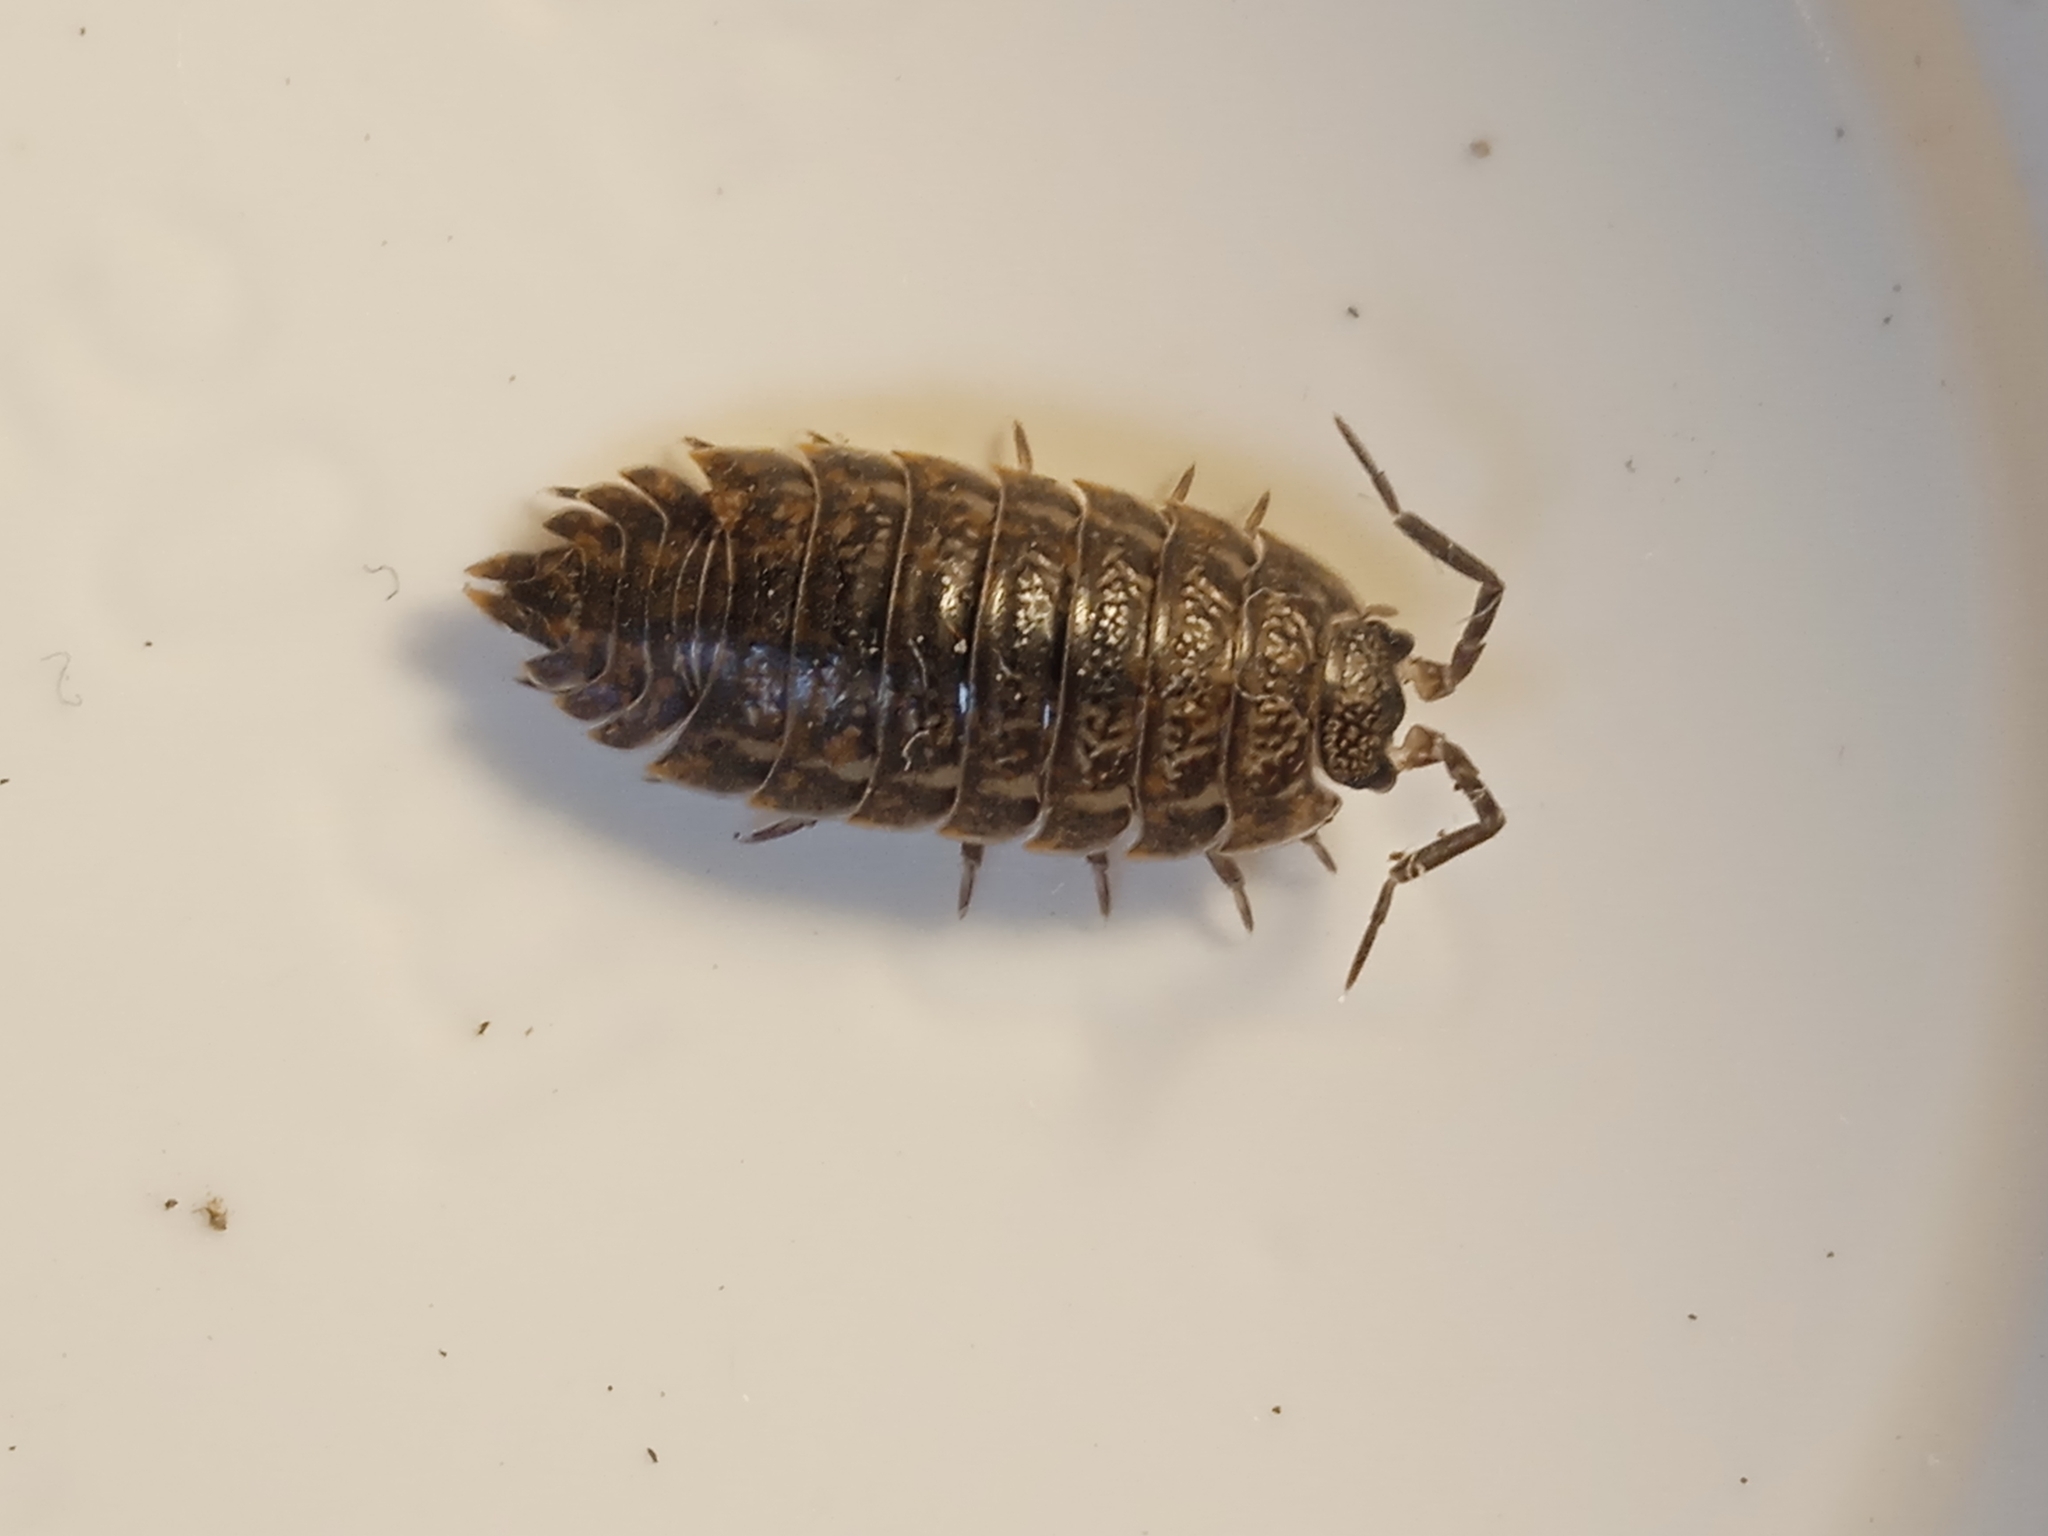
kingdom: Animalia
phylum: Arthropoda
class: Malacostraca
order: Isopoda
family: Trachelipodidae
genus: Trachelipus
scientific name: Trachelipus rathkii
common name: Isopod
